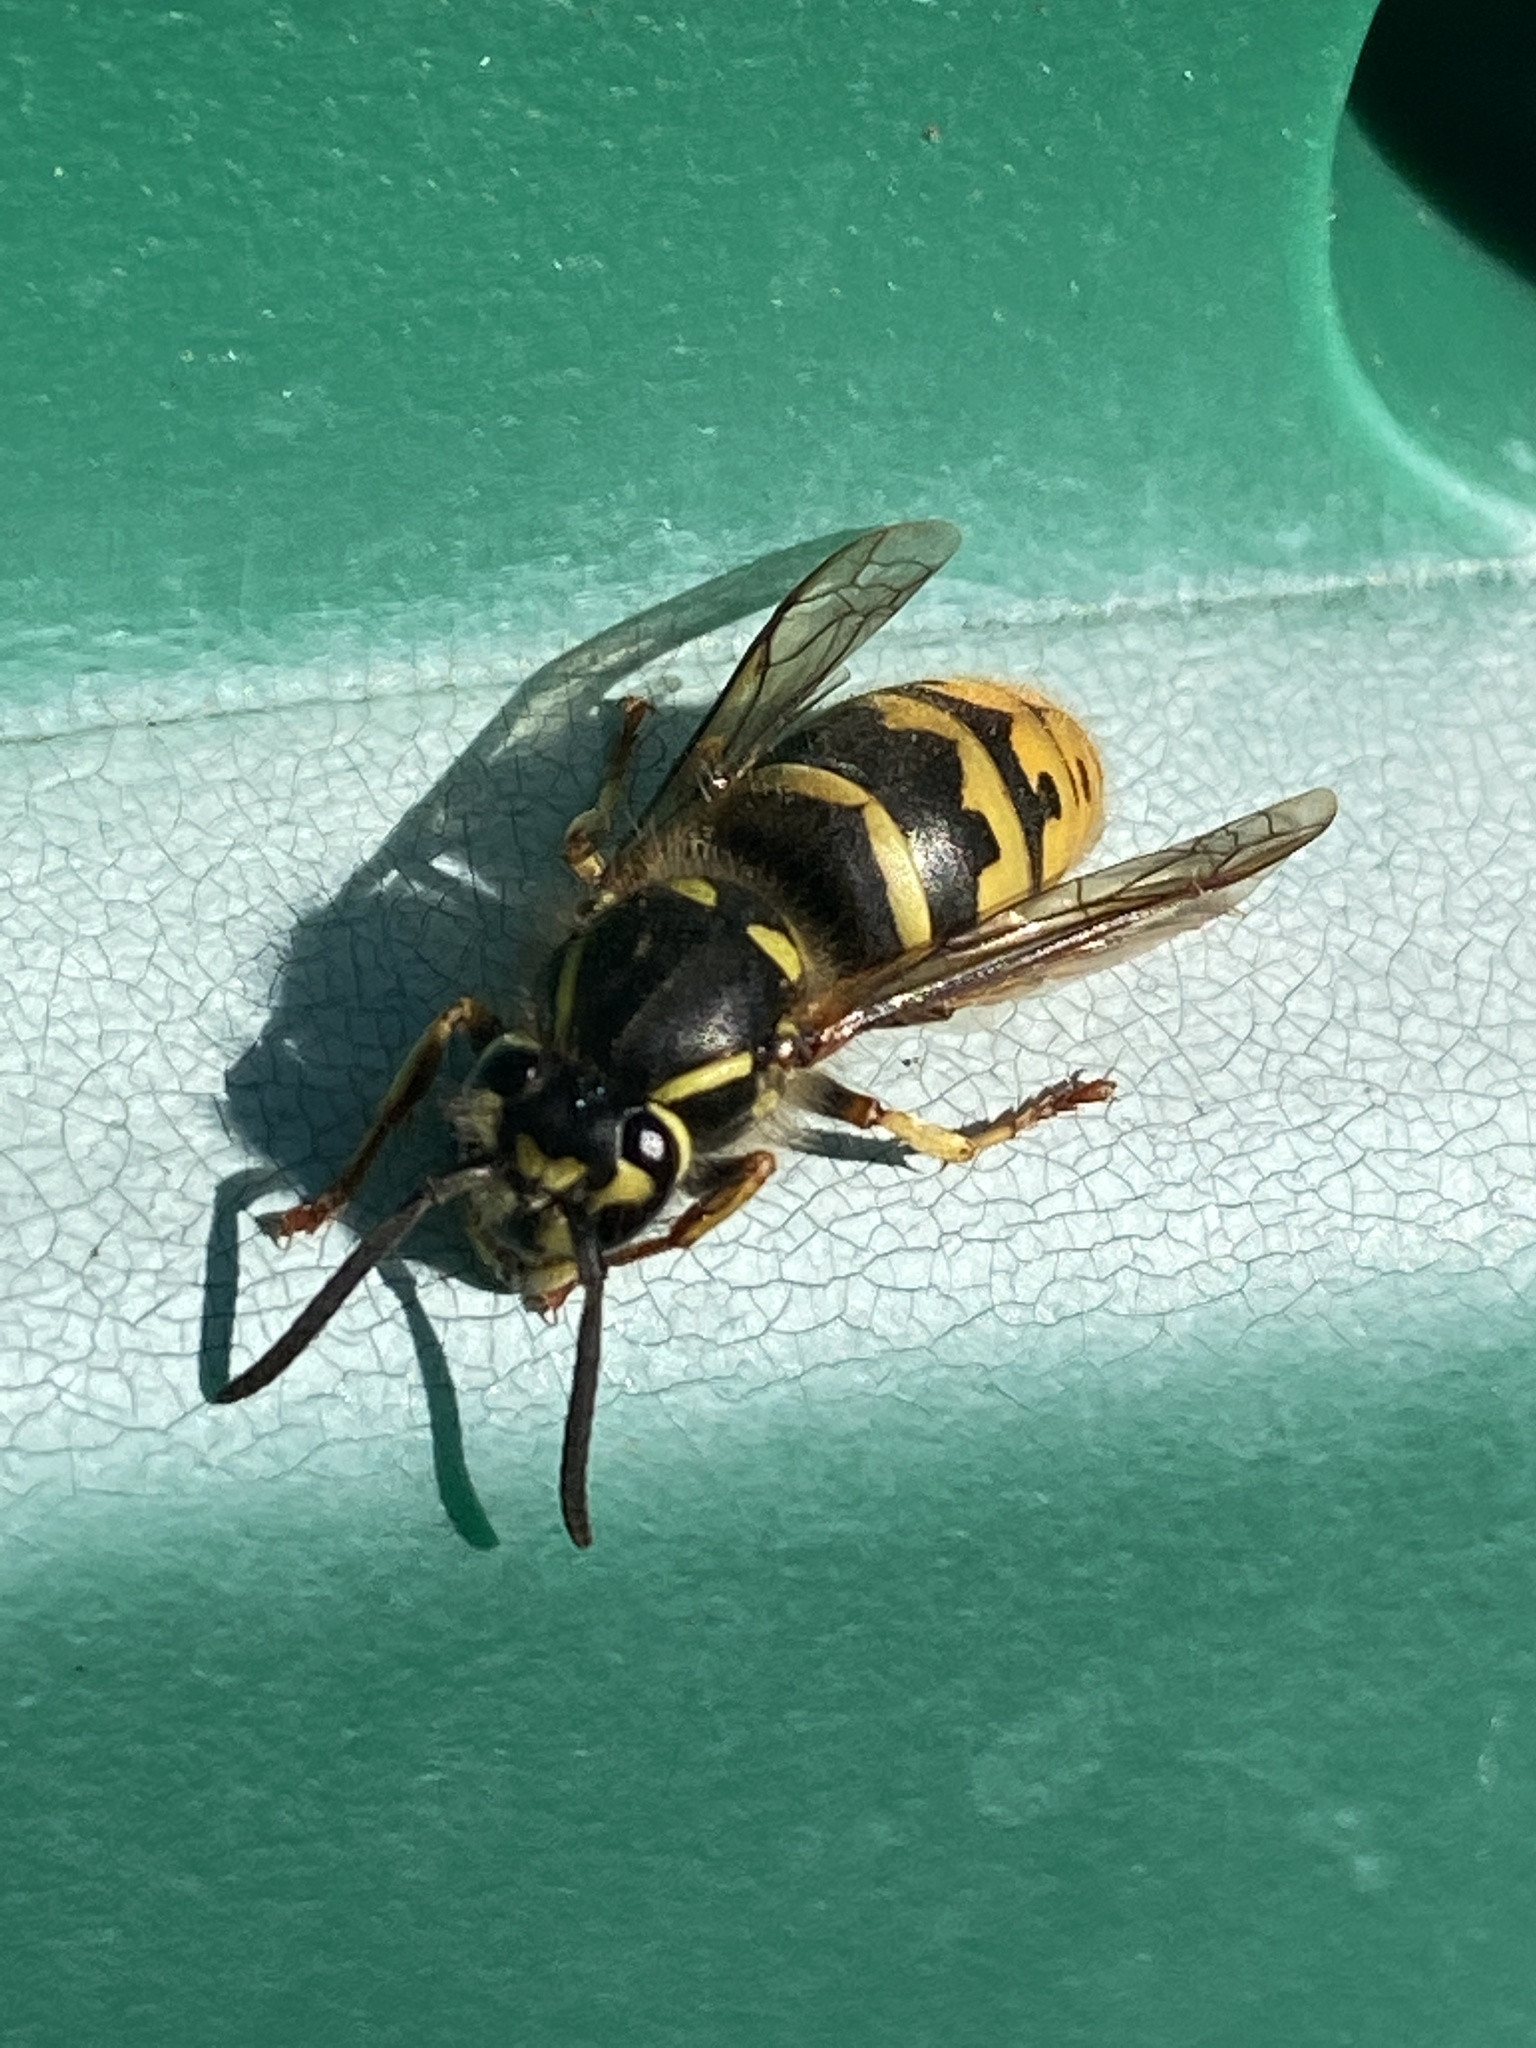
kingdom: Animalia
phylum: Arthropoda
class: Insecta
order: Hymenoptera
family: Vespidae
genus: Vespula
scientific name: Vespula vulgaris
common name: Common wasp
